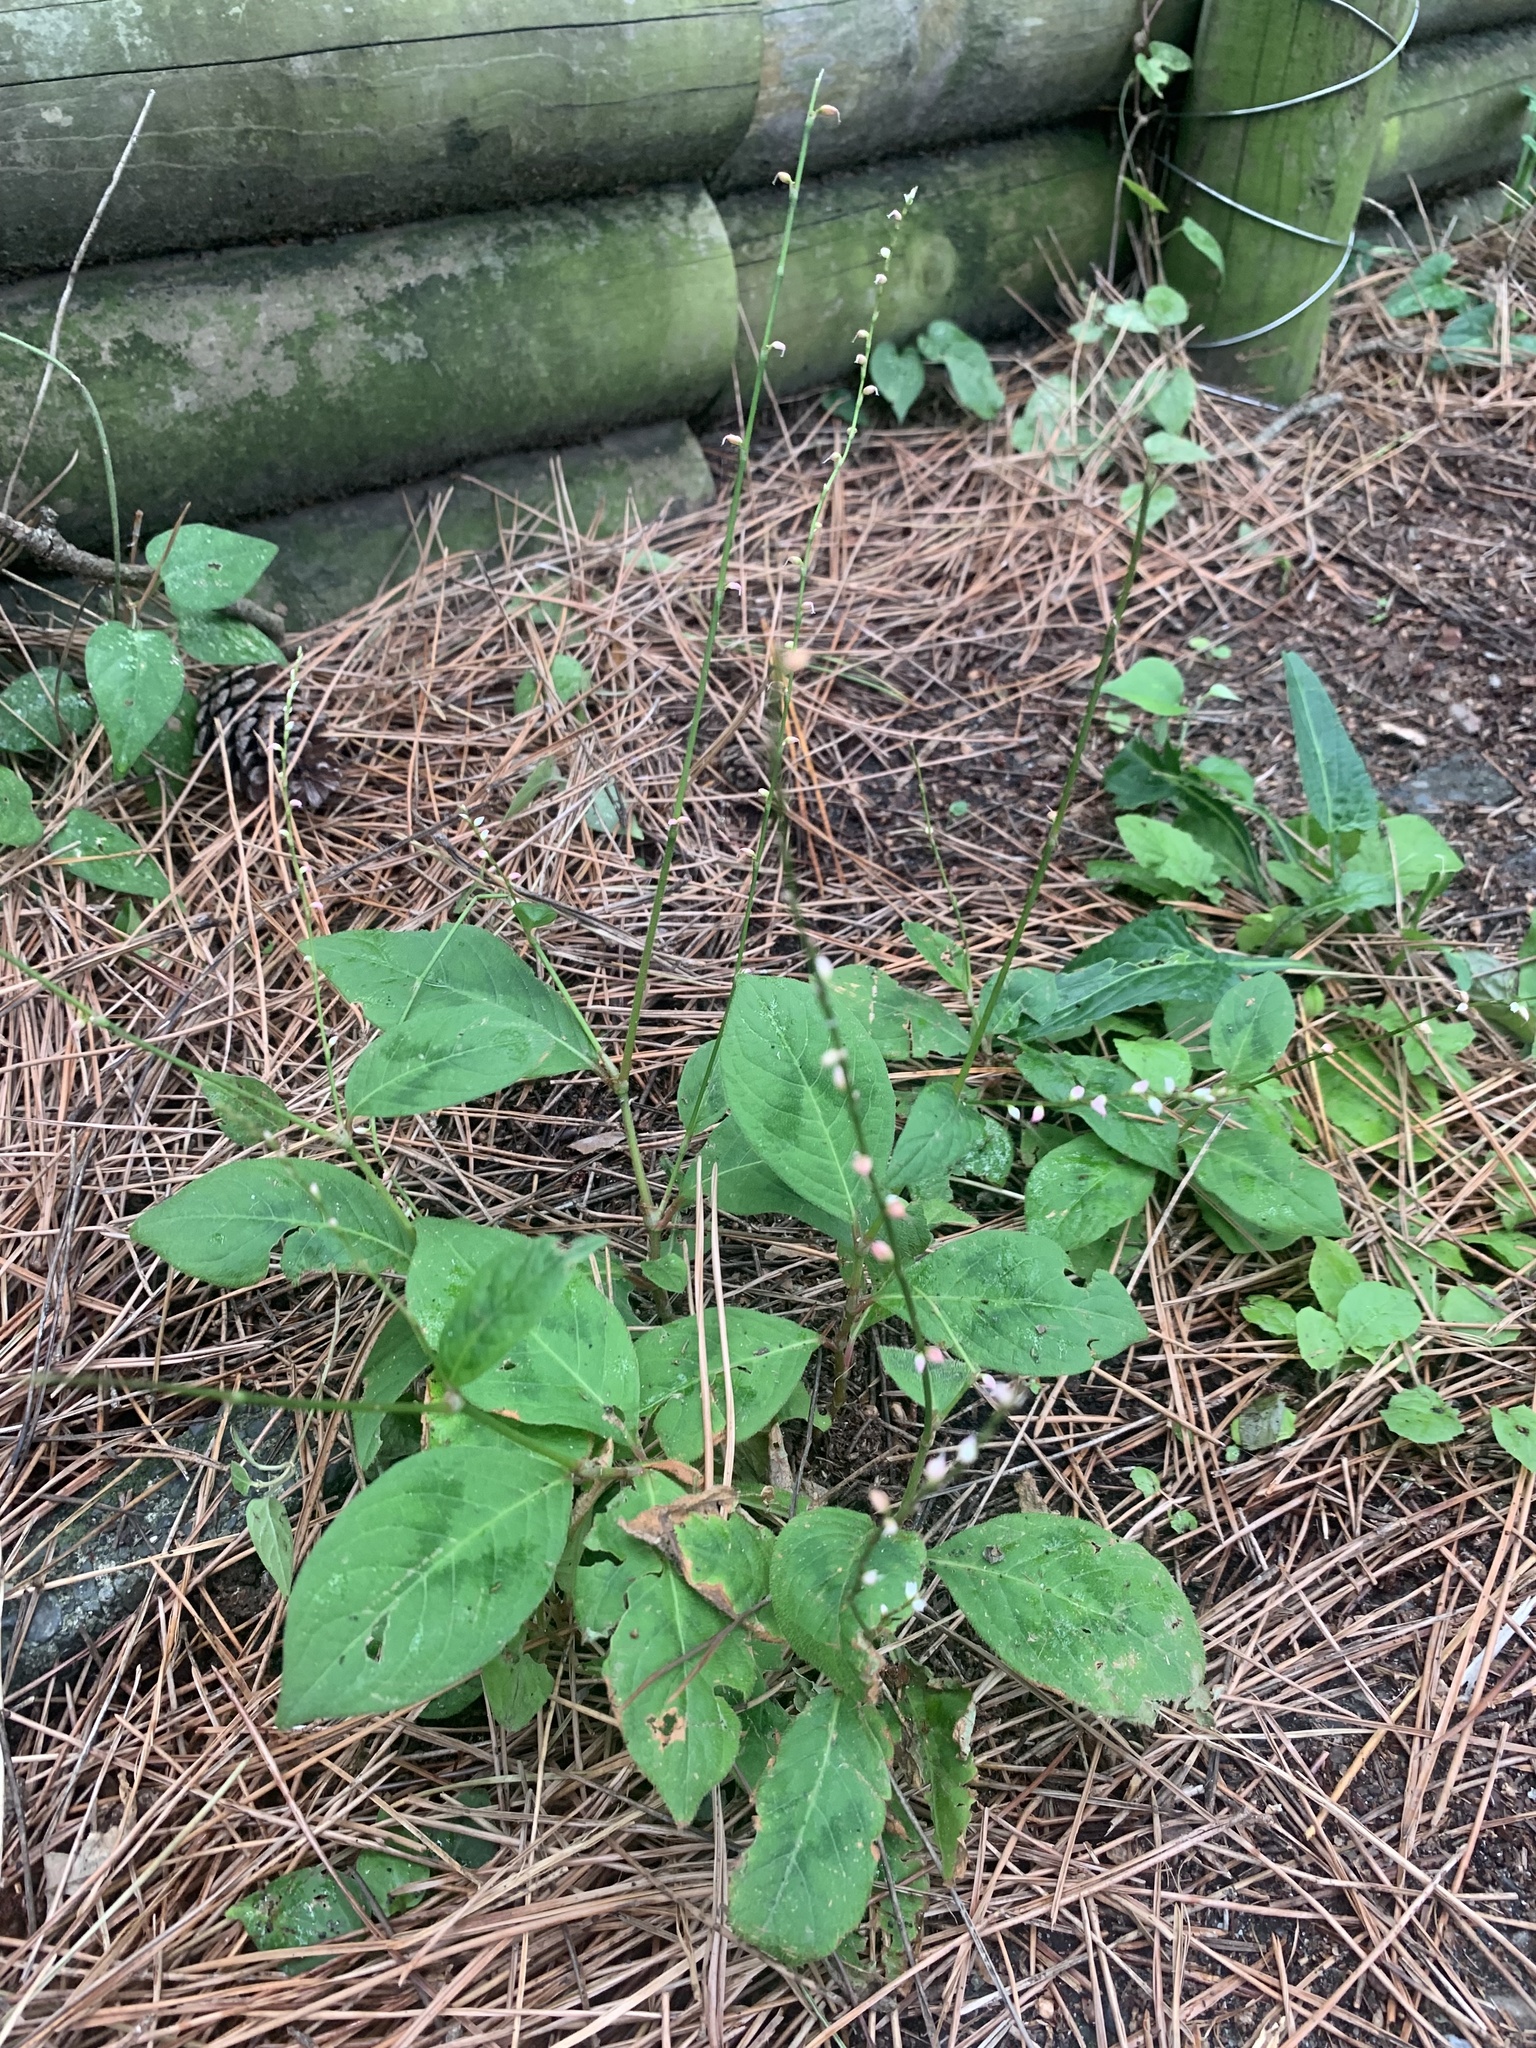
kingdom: Plantae
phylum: Tracheophyta
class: Magnoliopsida
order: Caryophyllales
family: Polygonaceae
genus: Persicaria
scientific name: Persicaria filiformis
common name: Asian jumpseed
